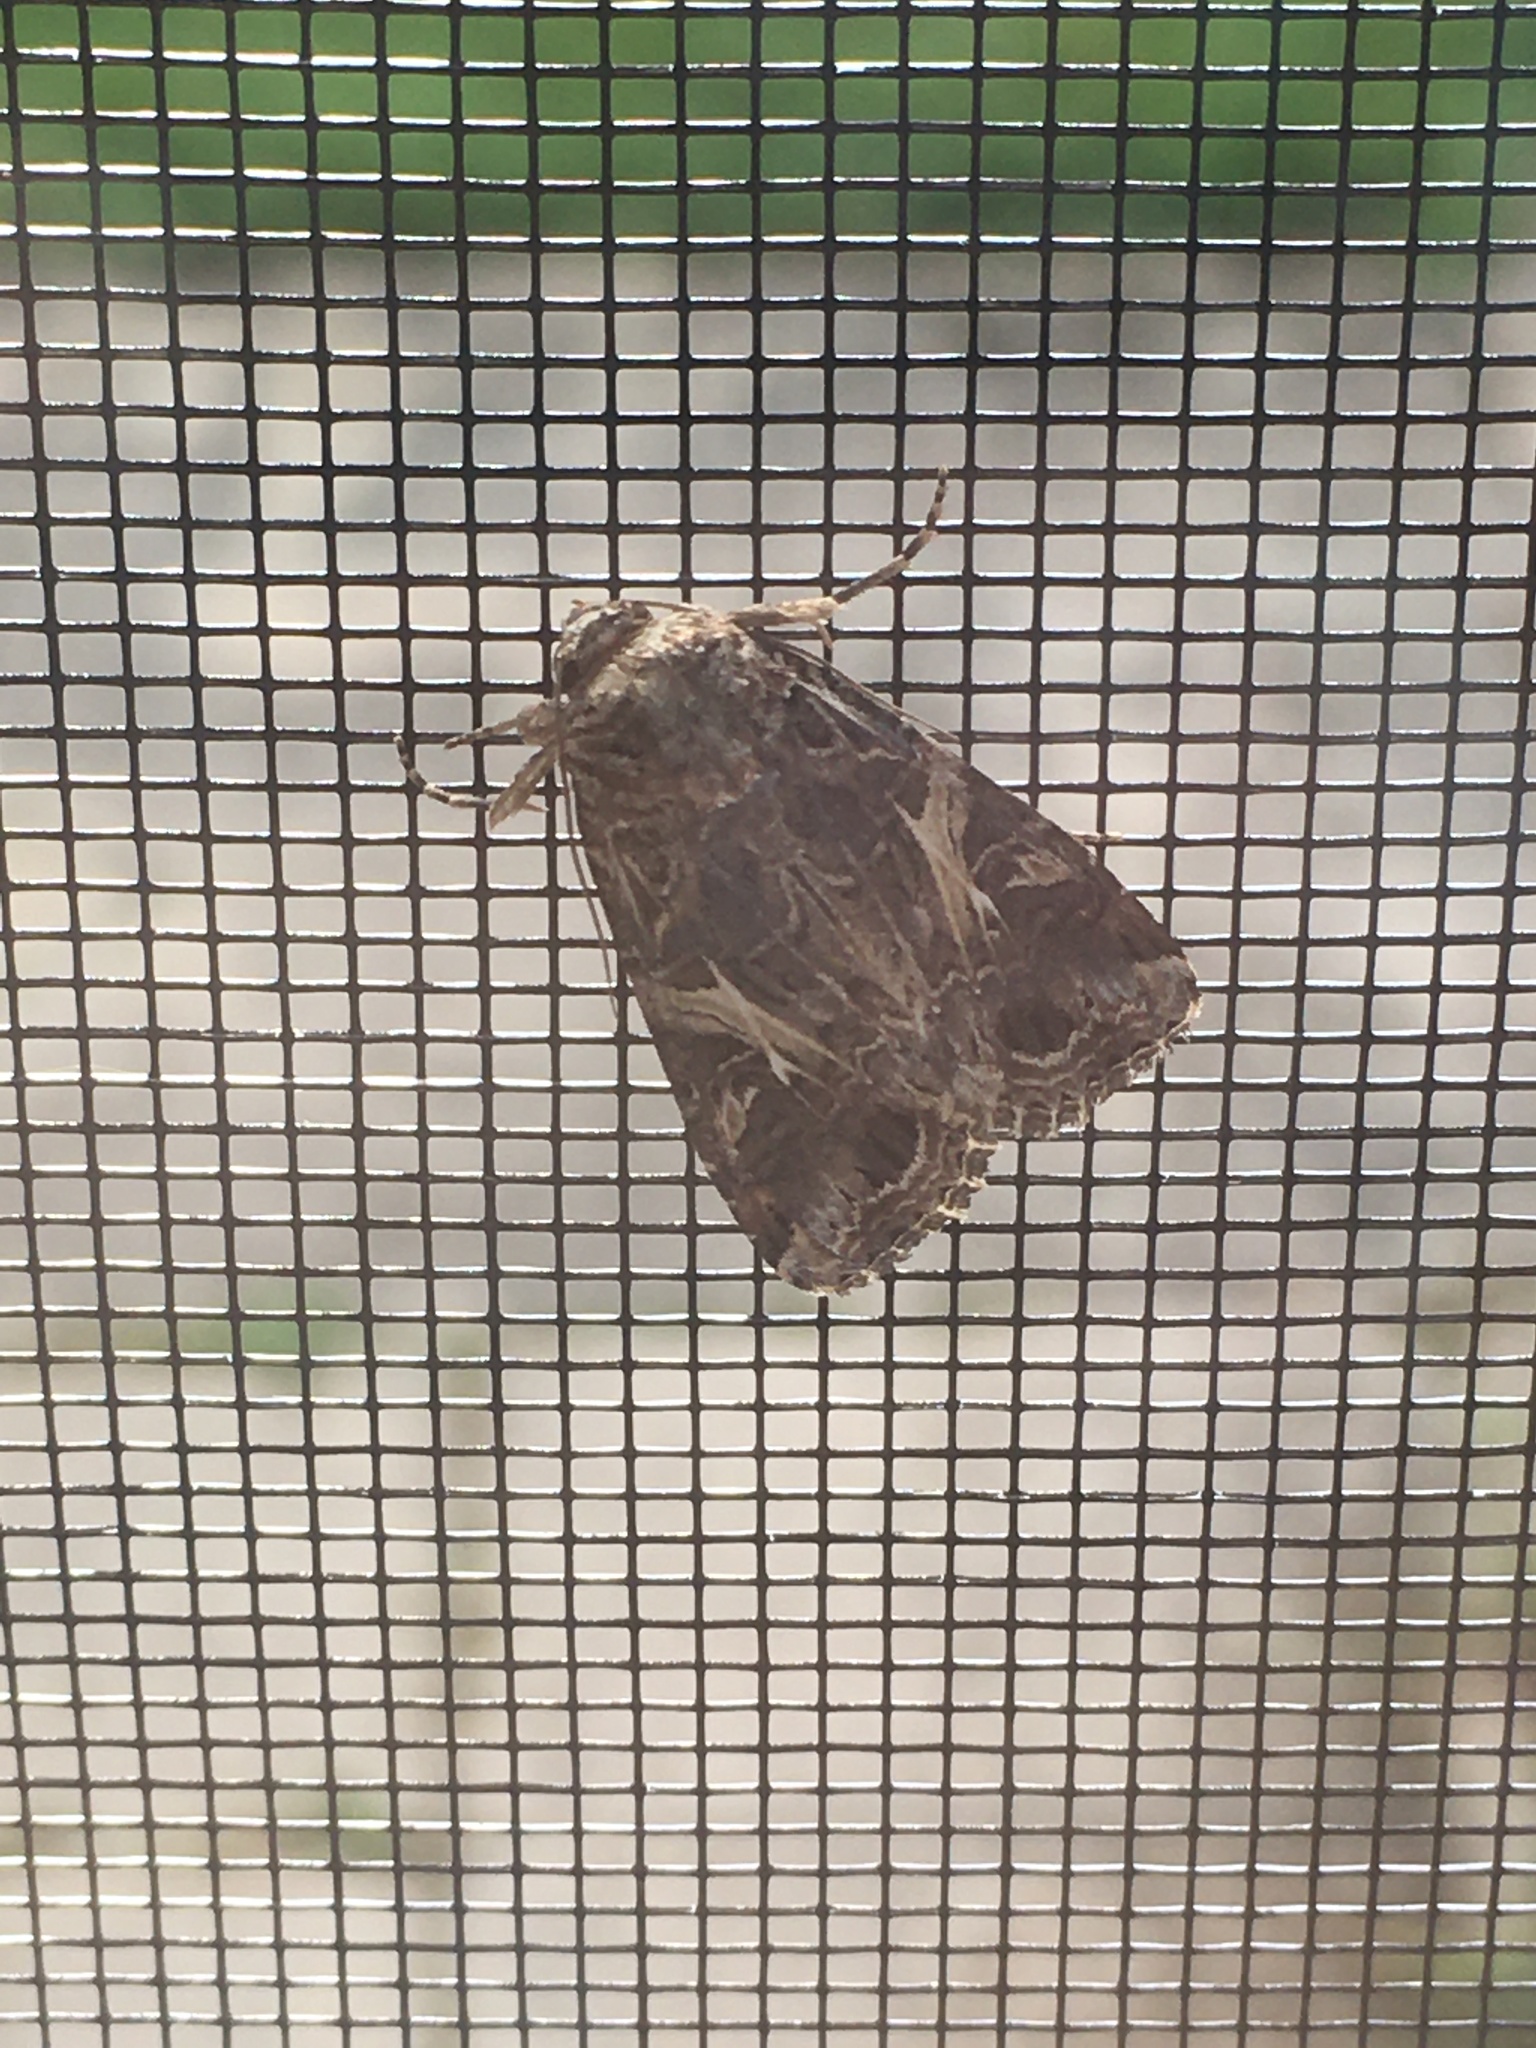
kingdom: Animalia
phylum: Arthropoda
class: Insecta
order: Lepidoptera
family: Noctuidae
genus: Spodoptera
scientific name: Spodoptera ornithogalli
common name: Yellow-striped armyworm
